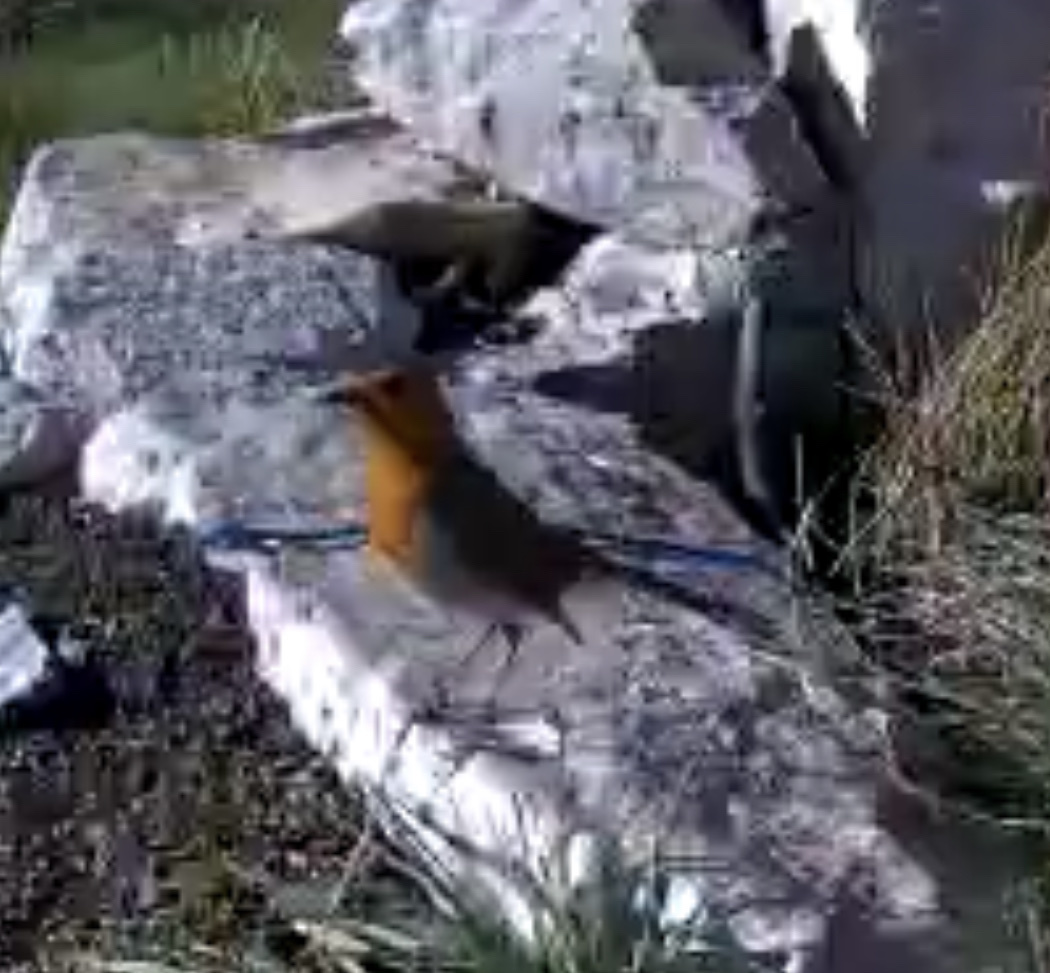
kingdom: Animalia
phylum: Chordata
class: Aves
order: Passeriformes
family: Muscicapidae
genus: Erithacus
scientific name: Erithacus rubecula
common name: European robin
